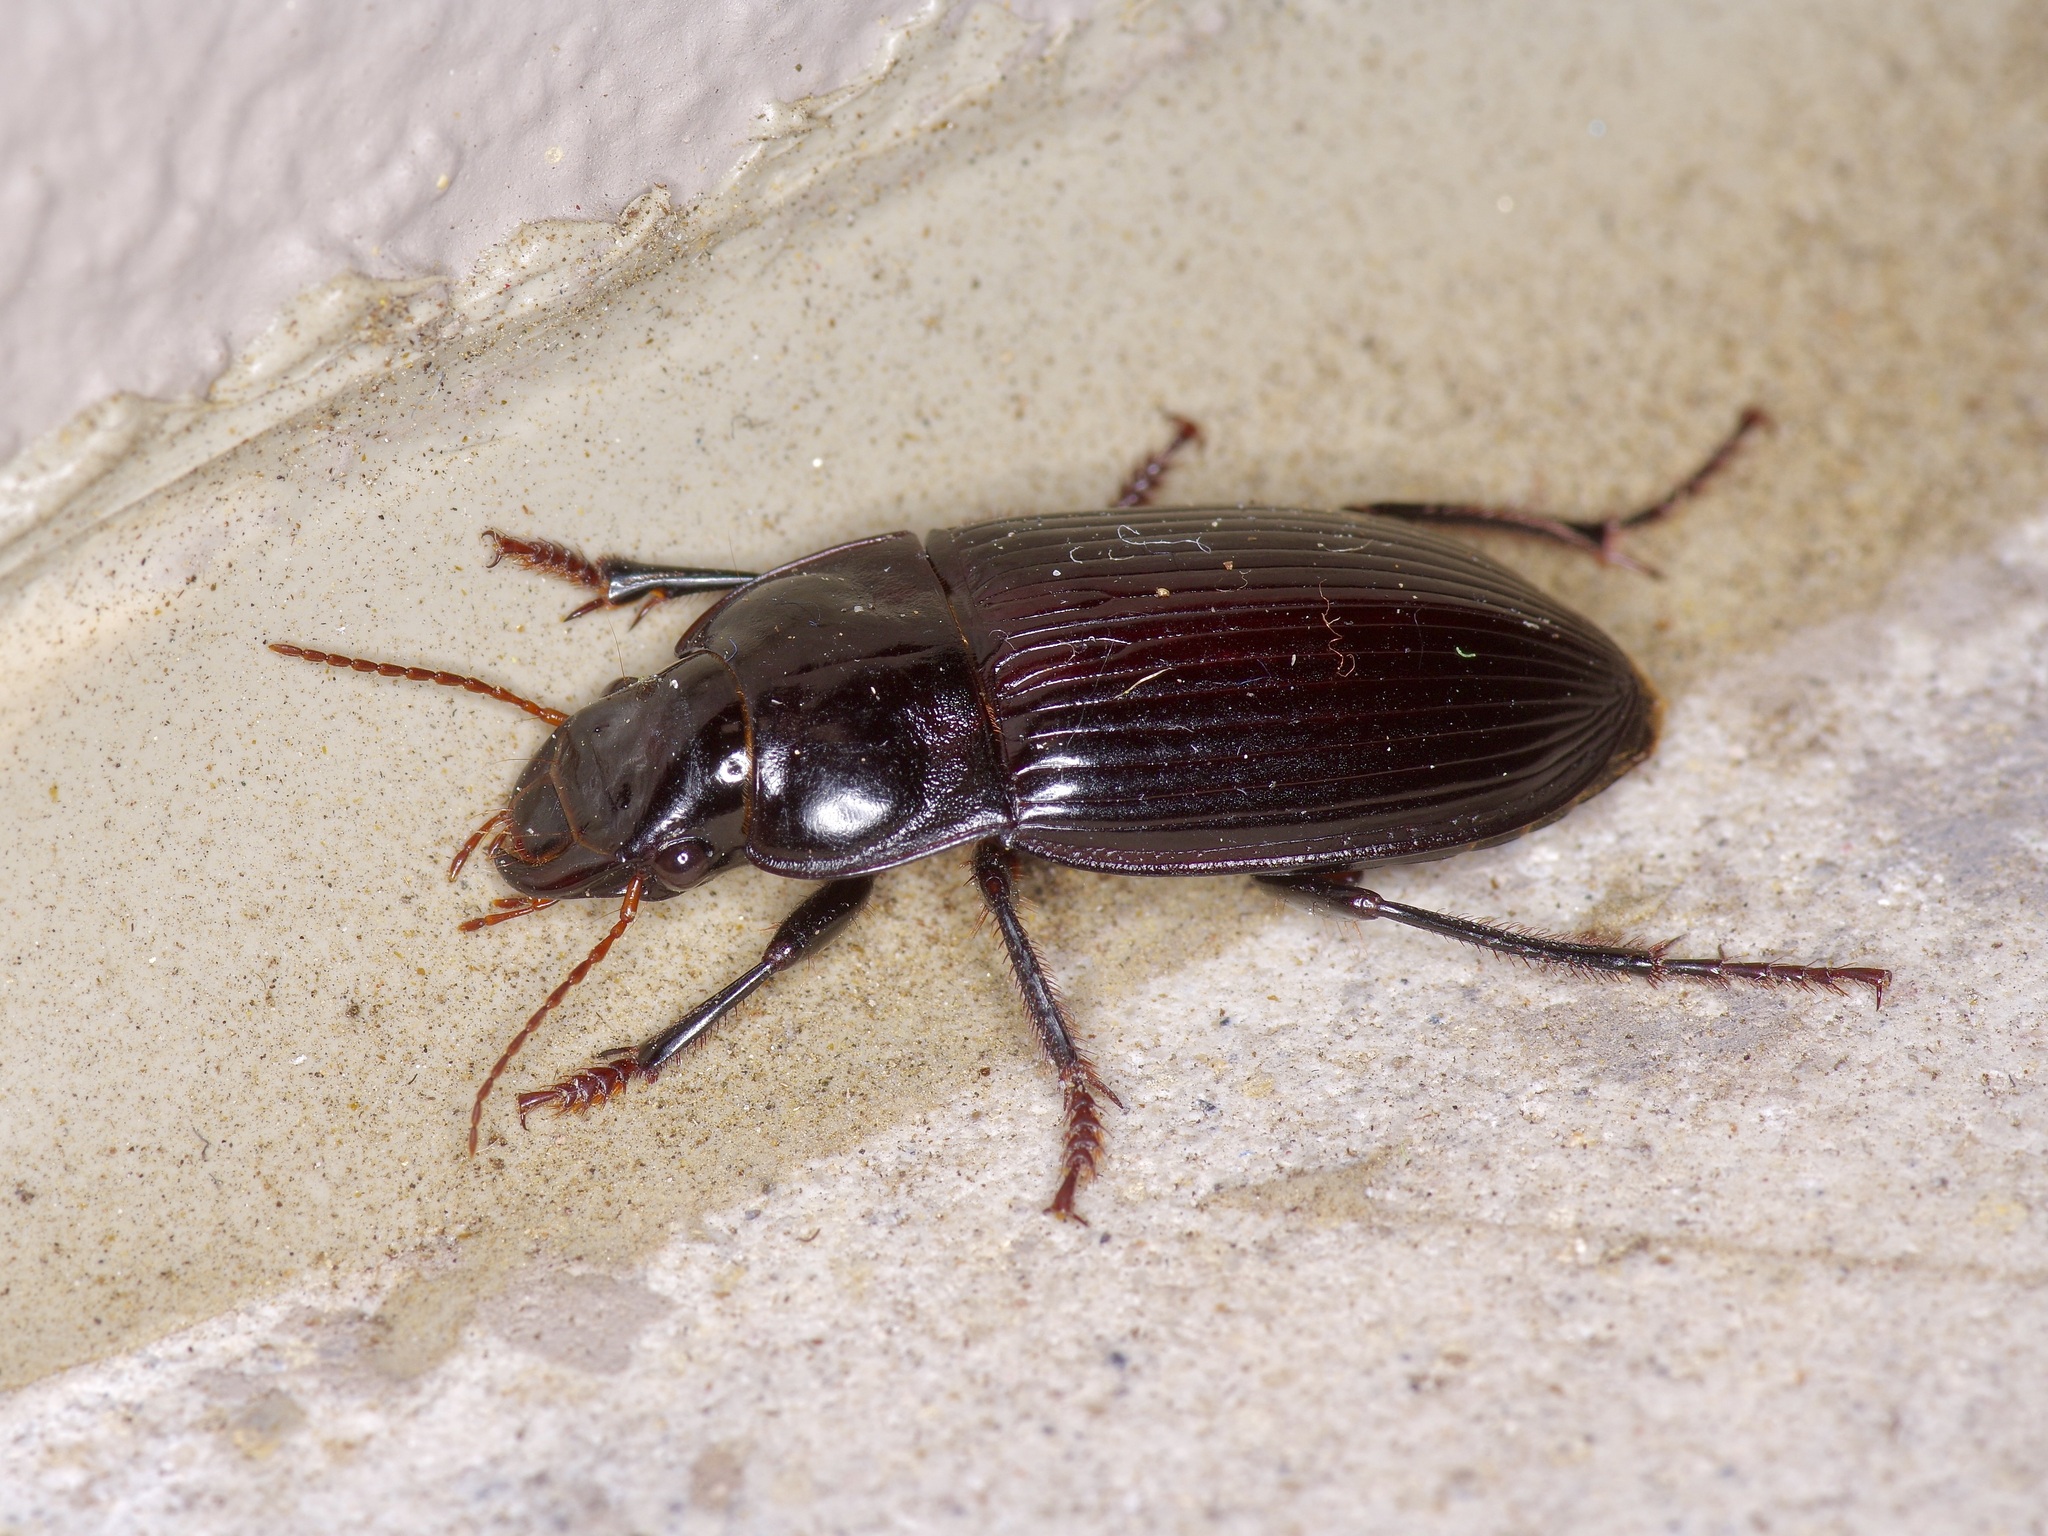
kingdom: Animalia
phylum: Arthropoda
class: Insecta
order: Coleoptera
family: Carabidae
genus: Harpalus
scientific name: Harpalus caliginosus
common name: Murky ground beetle
